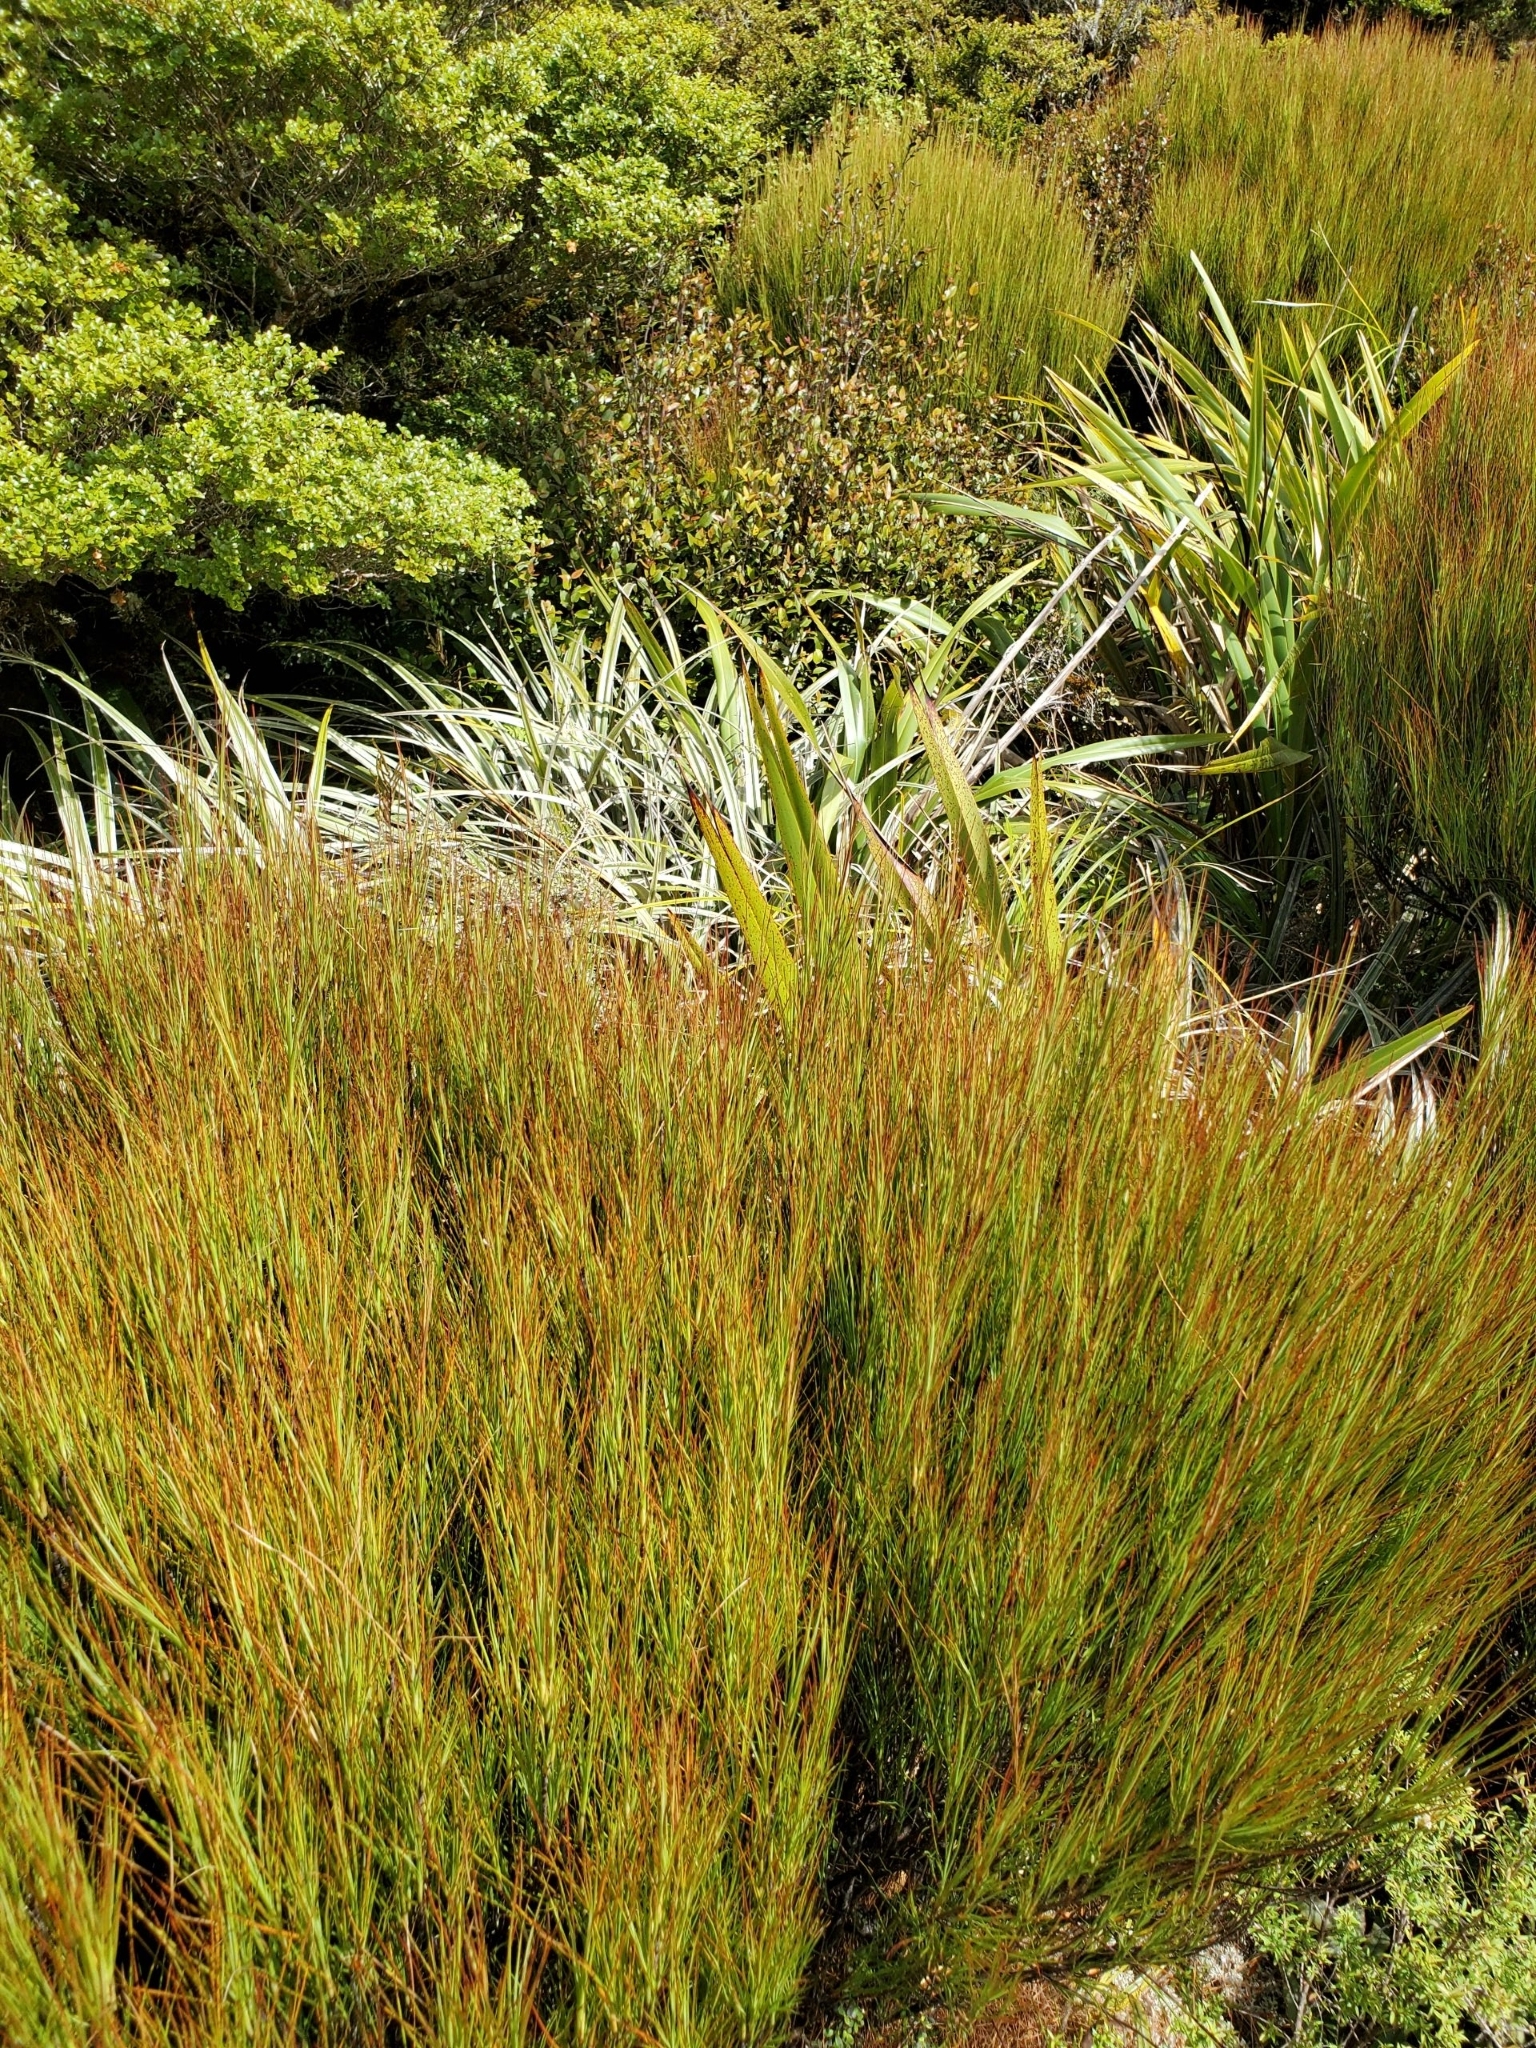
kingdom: Plantae
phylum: Tracheophyta
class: Magnoliopsida
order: Ericales
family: Ericaceae
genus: Dracophyllum
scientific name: Dracophyllum filifolium
